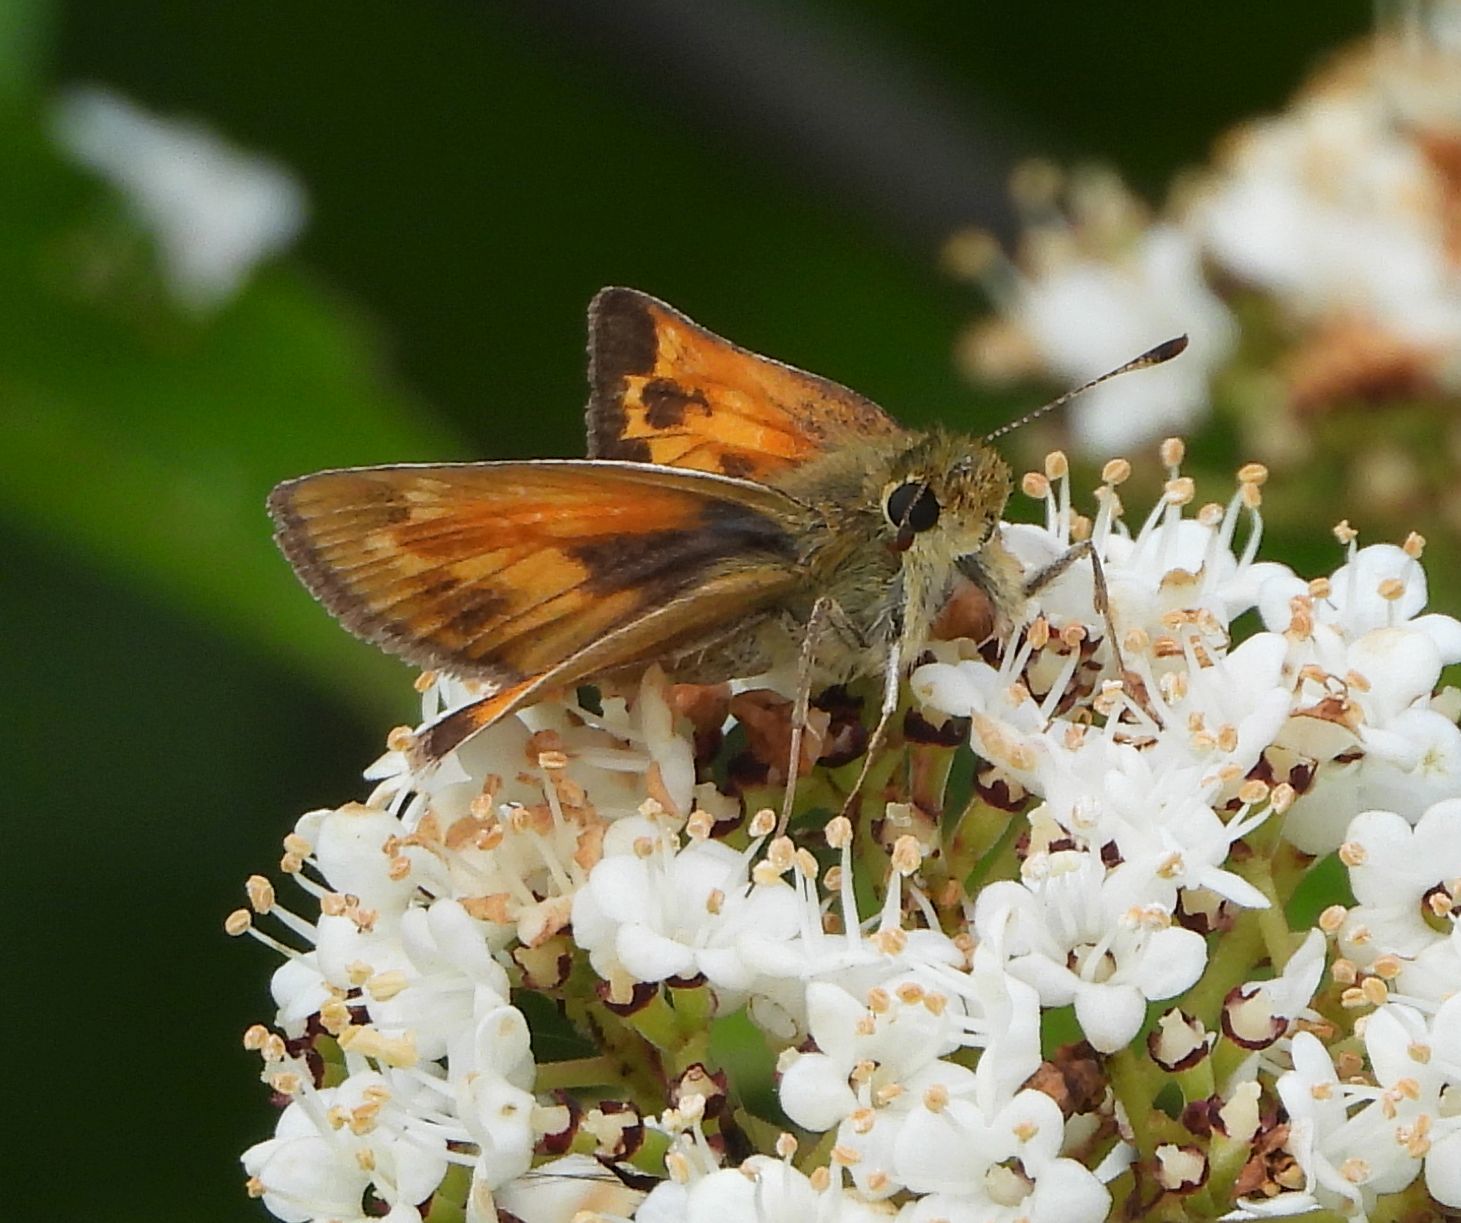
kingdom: Animalia
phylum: Arthropoda
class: Insecta
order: Lepidoptera
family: Hesperiidae
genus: Hesperia
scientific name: Hesperia sassacus
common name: Indian skipper
